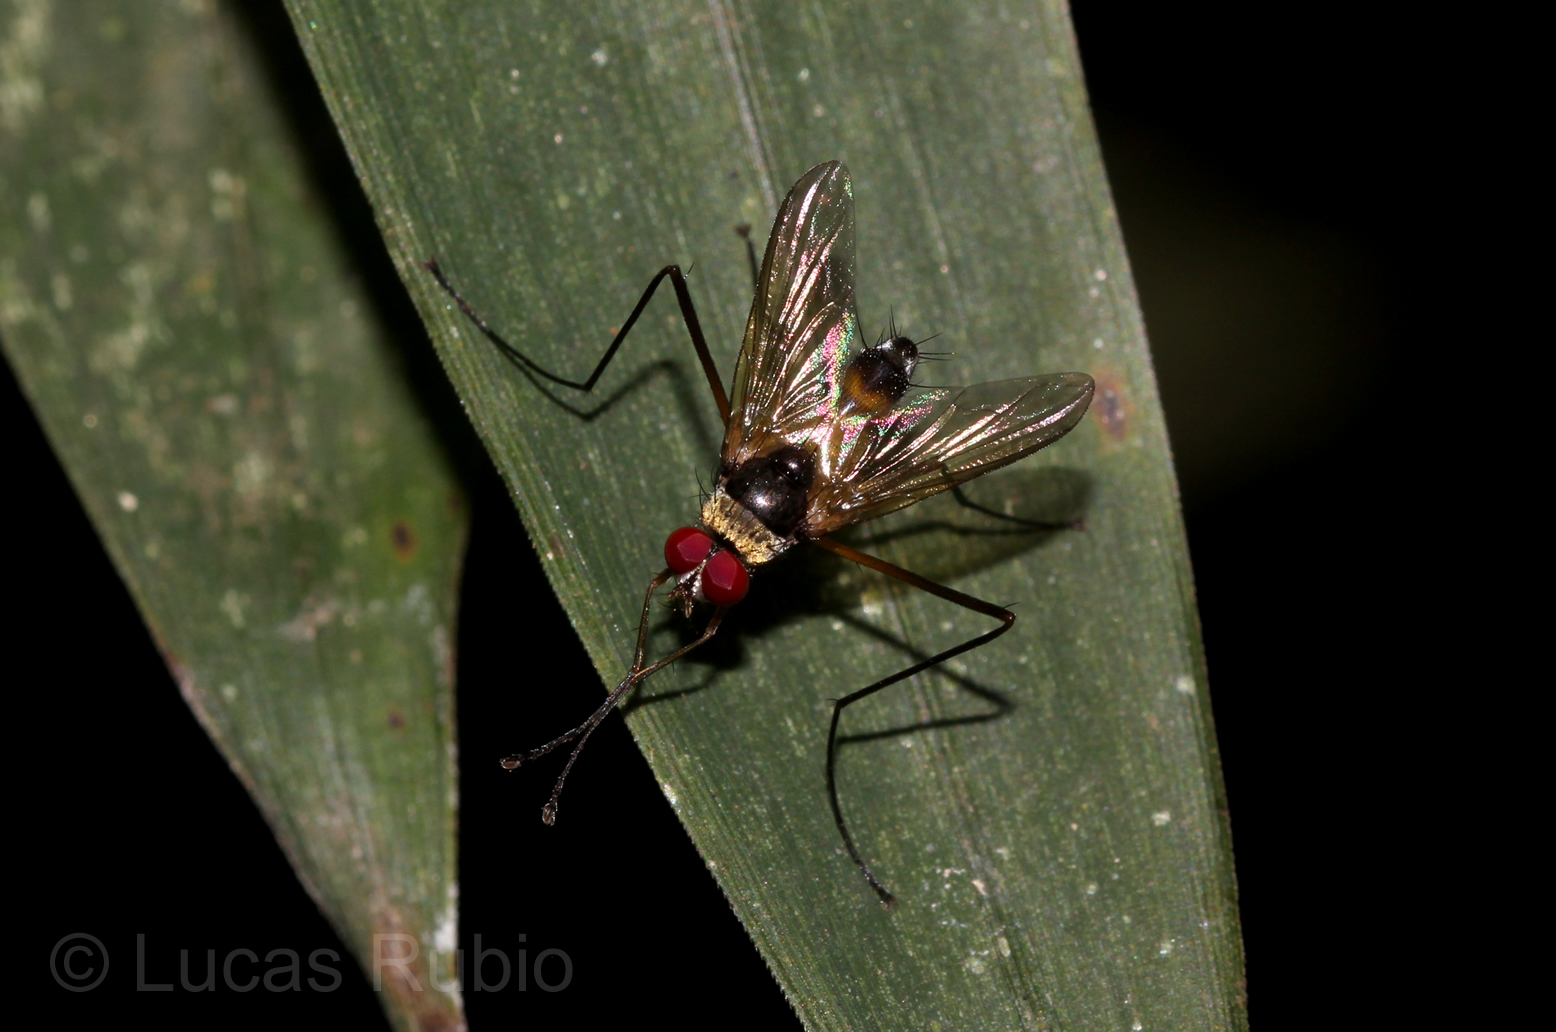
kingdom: Animalia
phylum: Arthropoda
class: Insecta
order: Diptera
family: Tachinidae
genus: Cholomyia
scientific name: Cholomyia inaequipes
